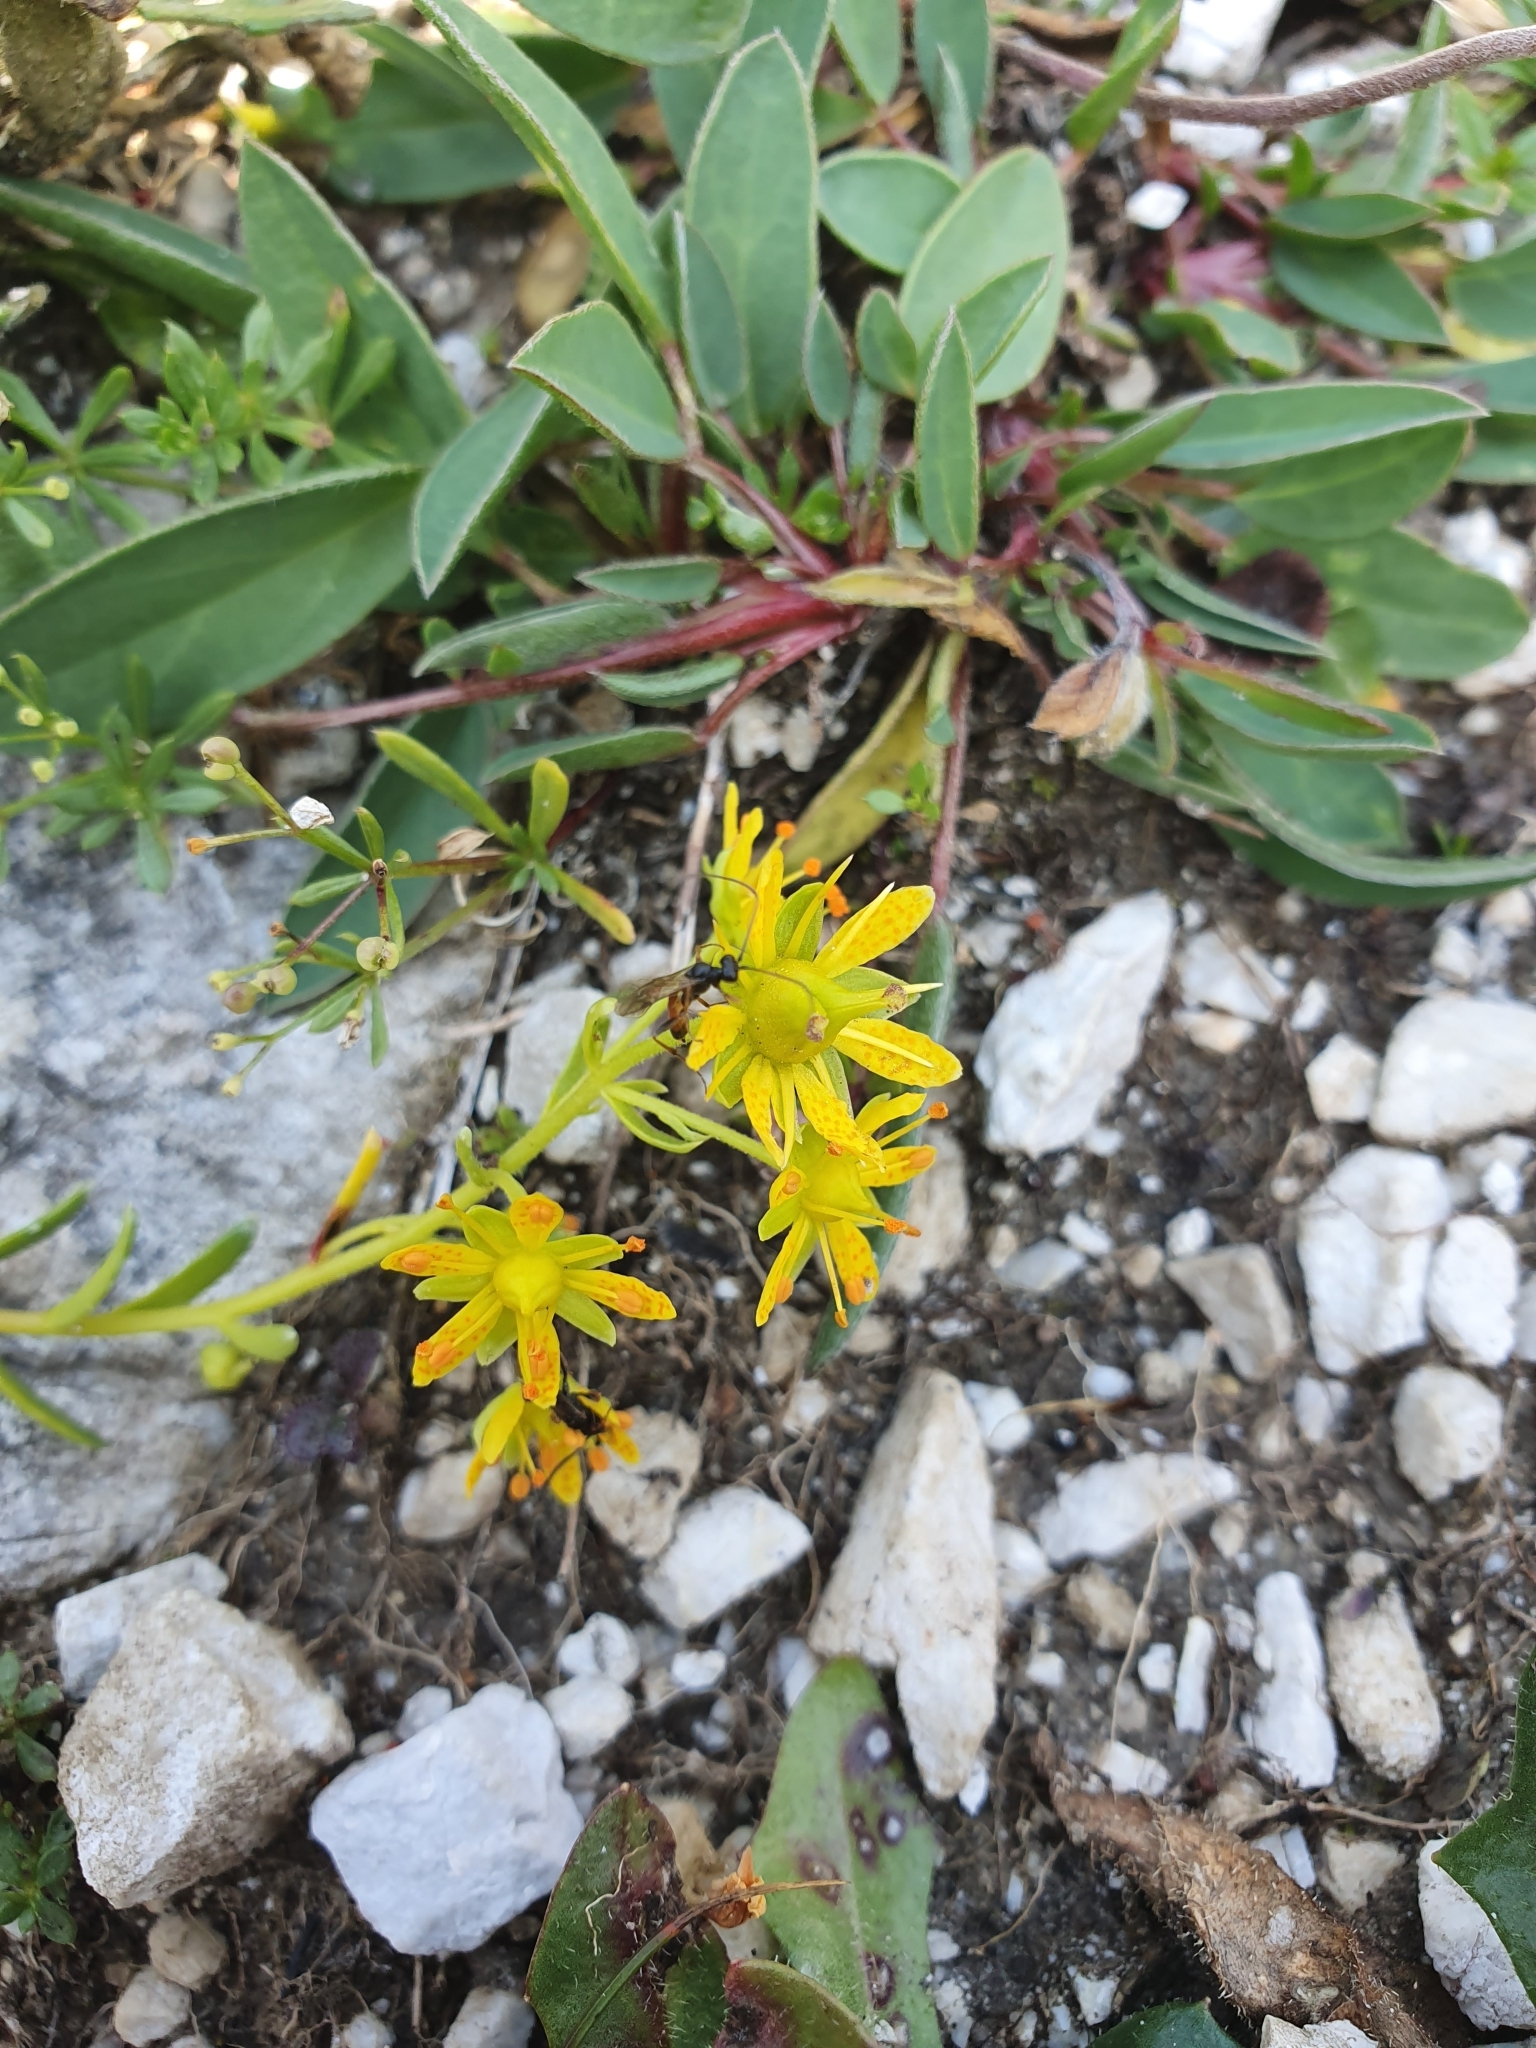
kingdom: Plantae
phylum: Tracheophyta
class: Magnoliopsida
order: Saxifragales
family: Saxifragaceae
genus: Saxifraga
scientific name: Saxifraga aizoides
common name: Yellow mountain saxifrage
